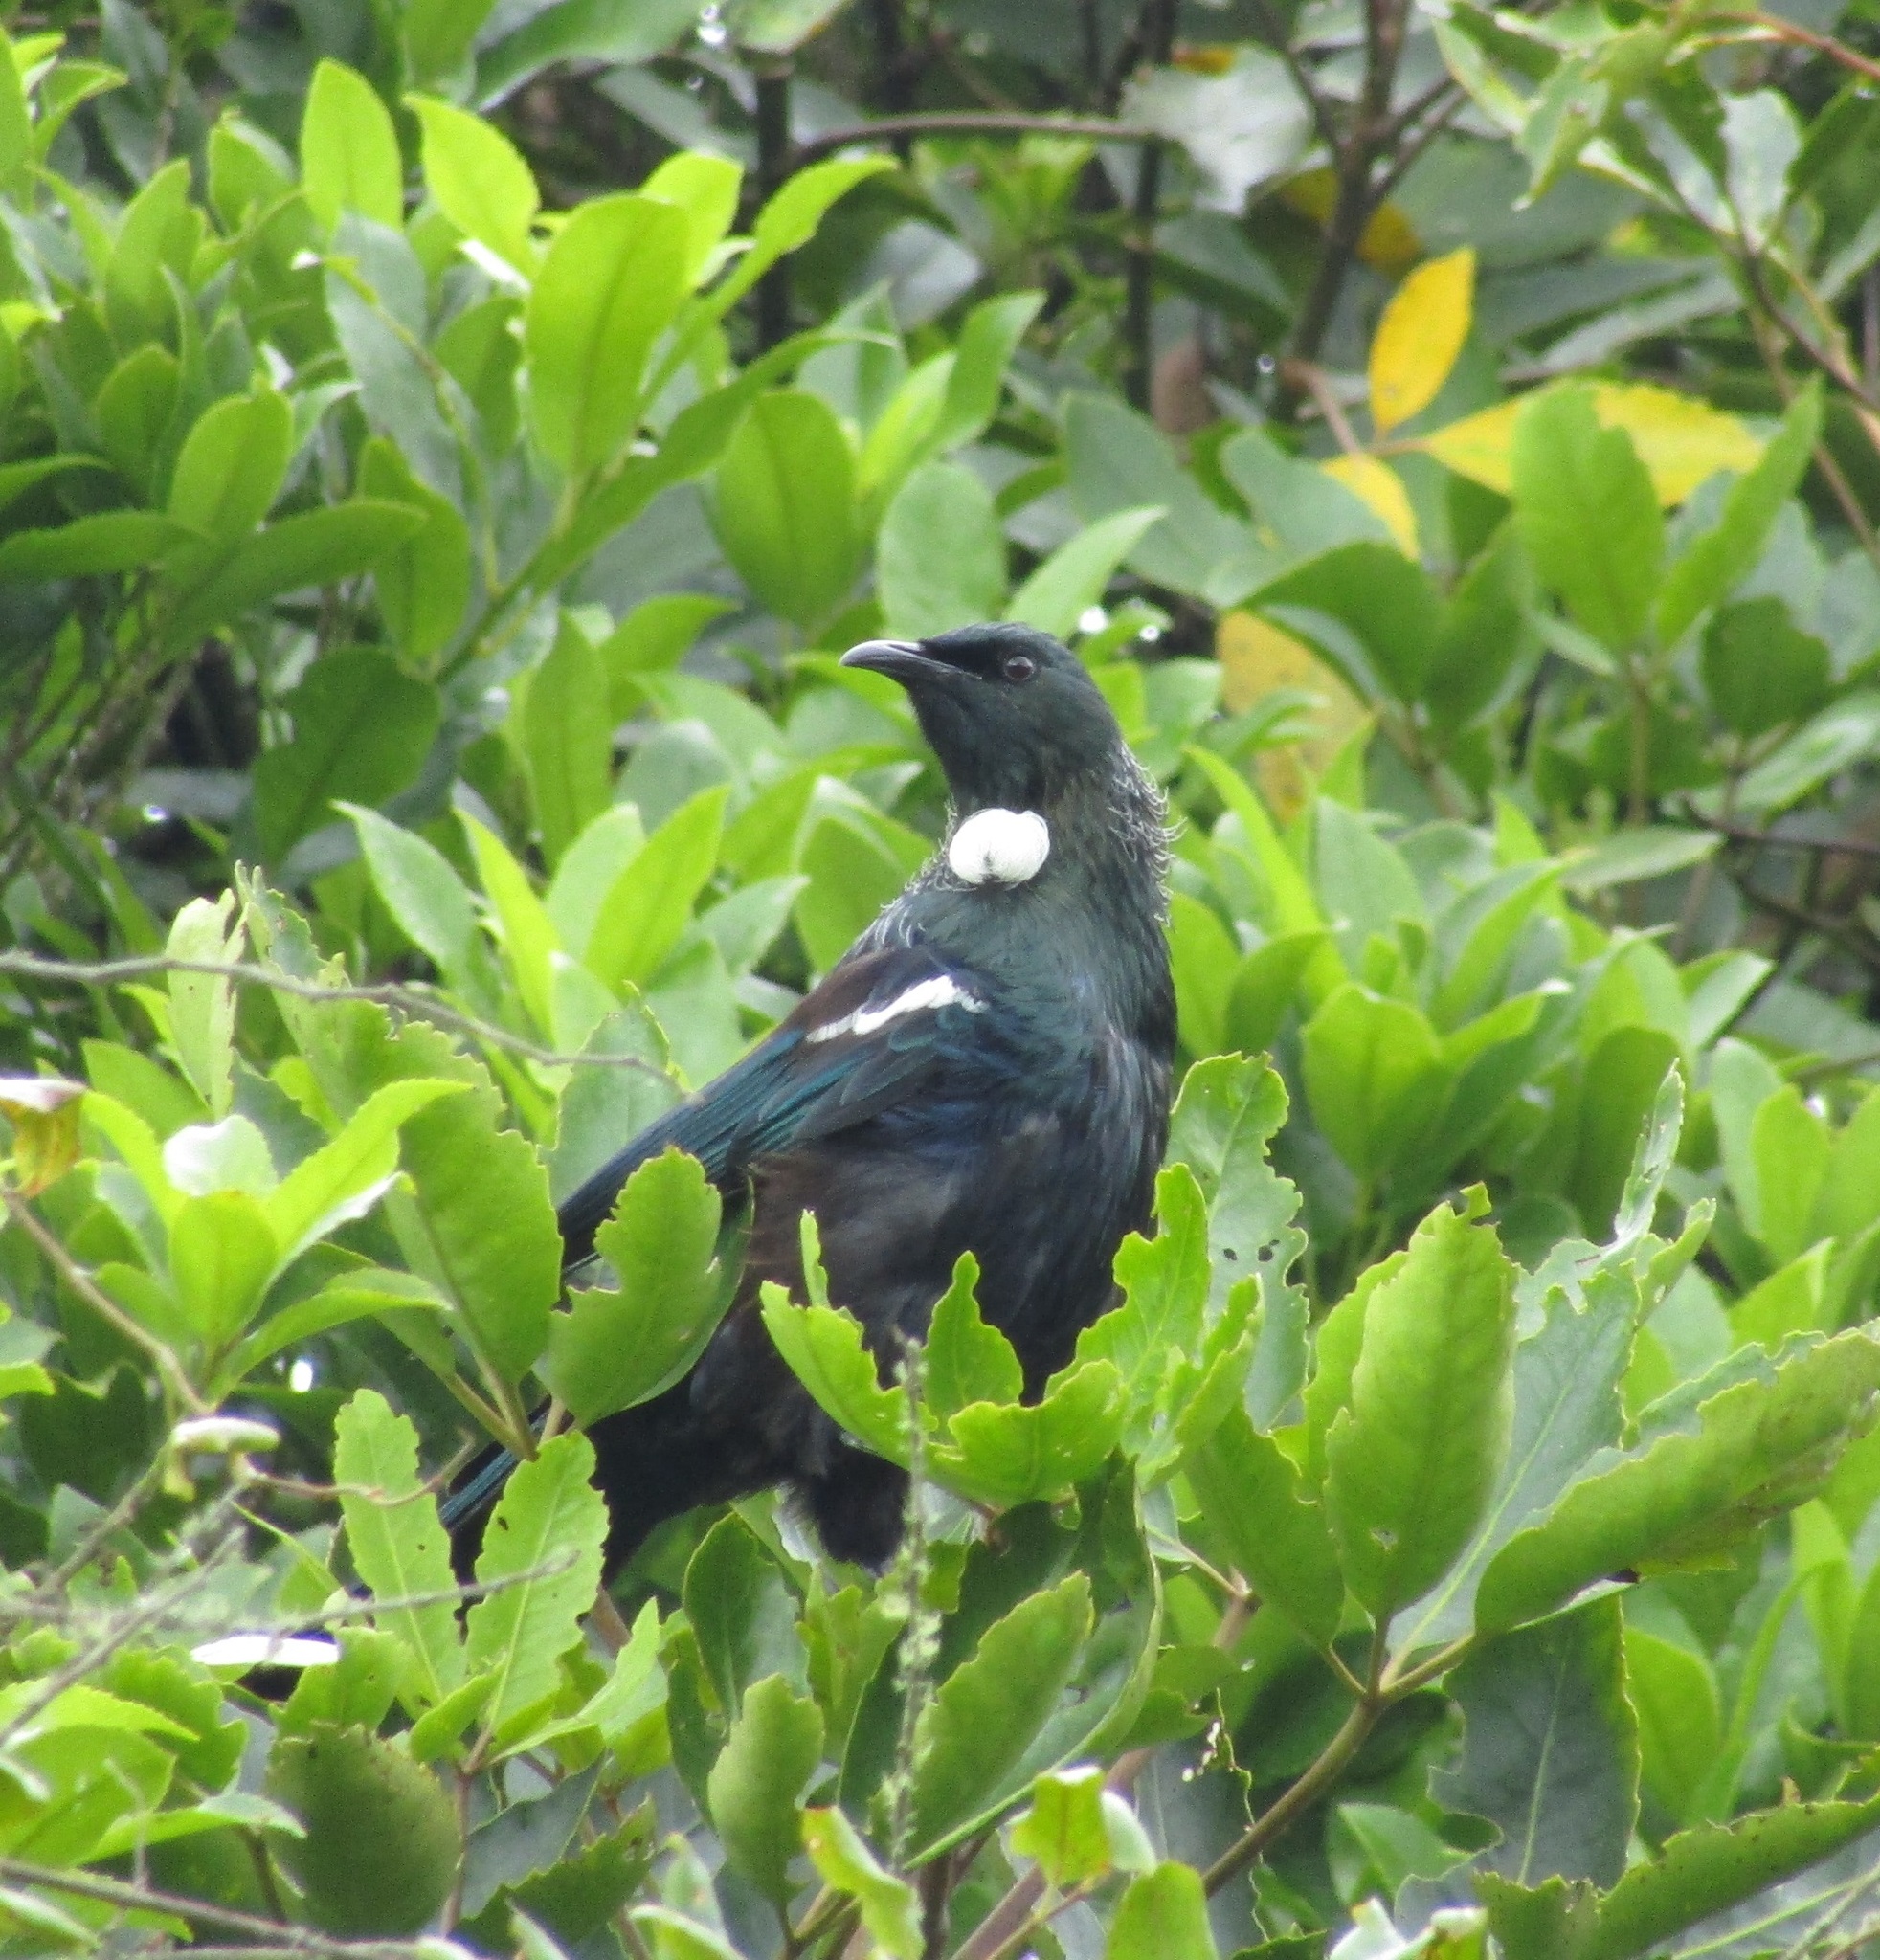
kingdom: Animalia
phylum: Chordata
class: Aves
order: Passeriformes
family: Meliphagidae
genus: Prosthemadera
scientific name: Prosthemadera novaeseelandiae
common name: Tui
